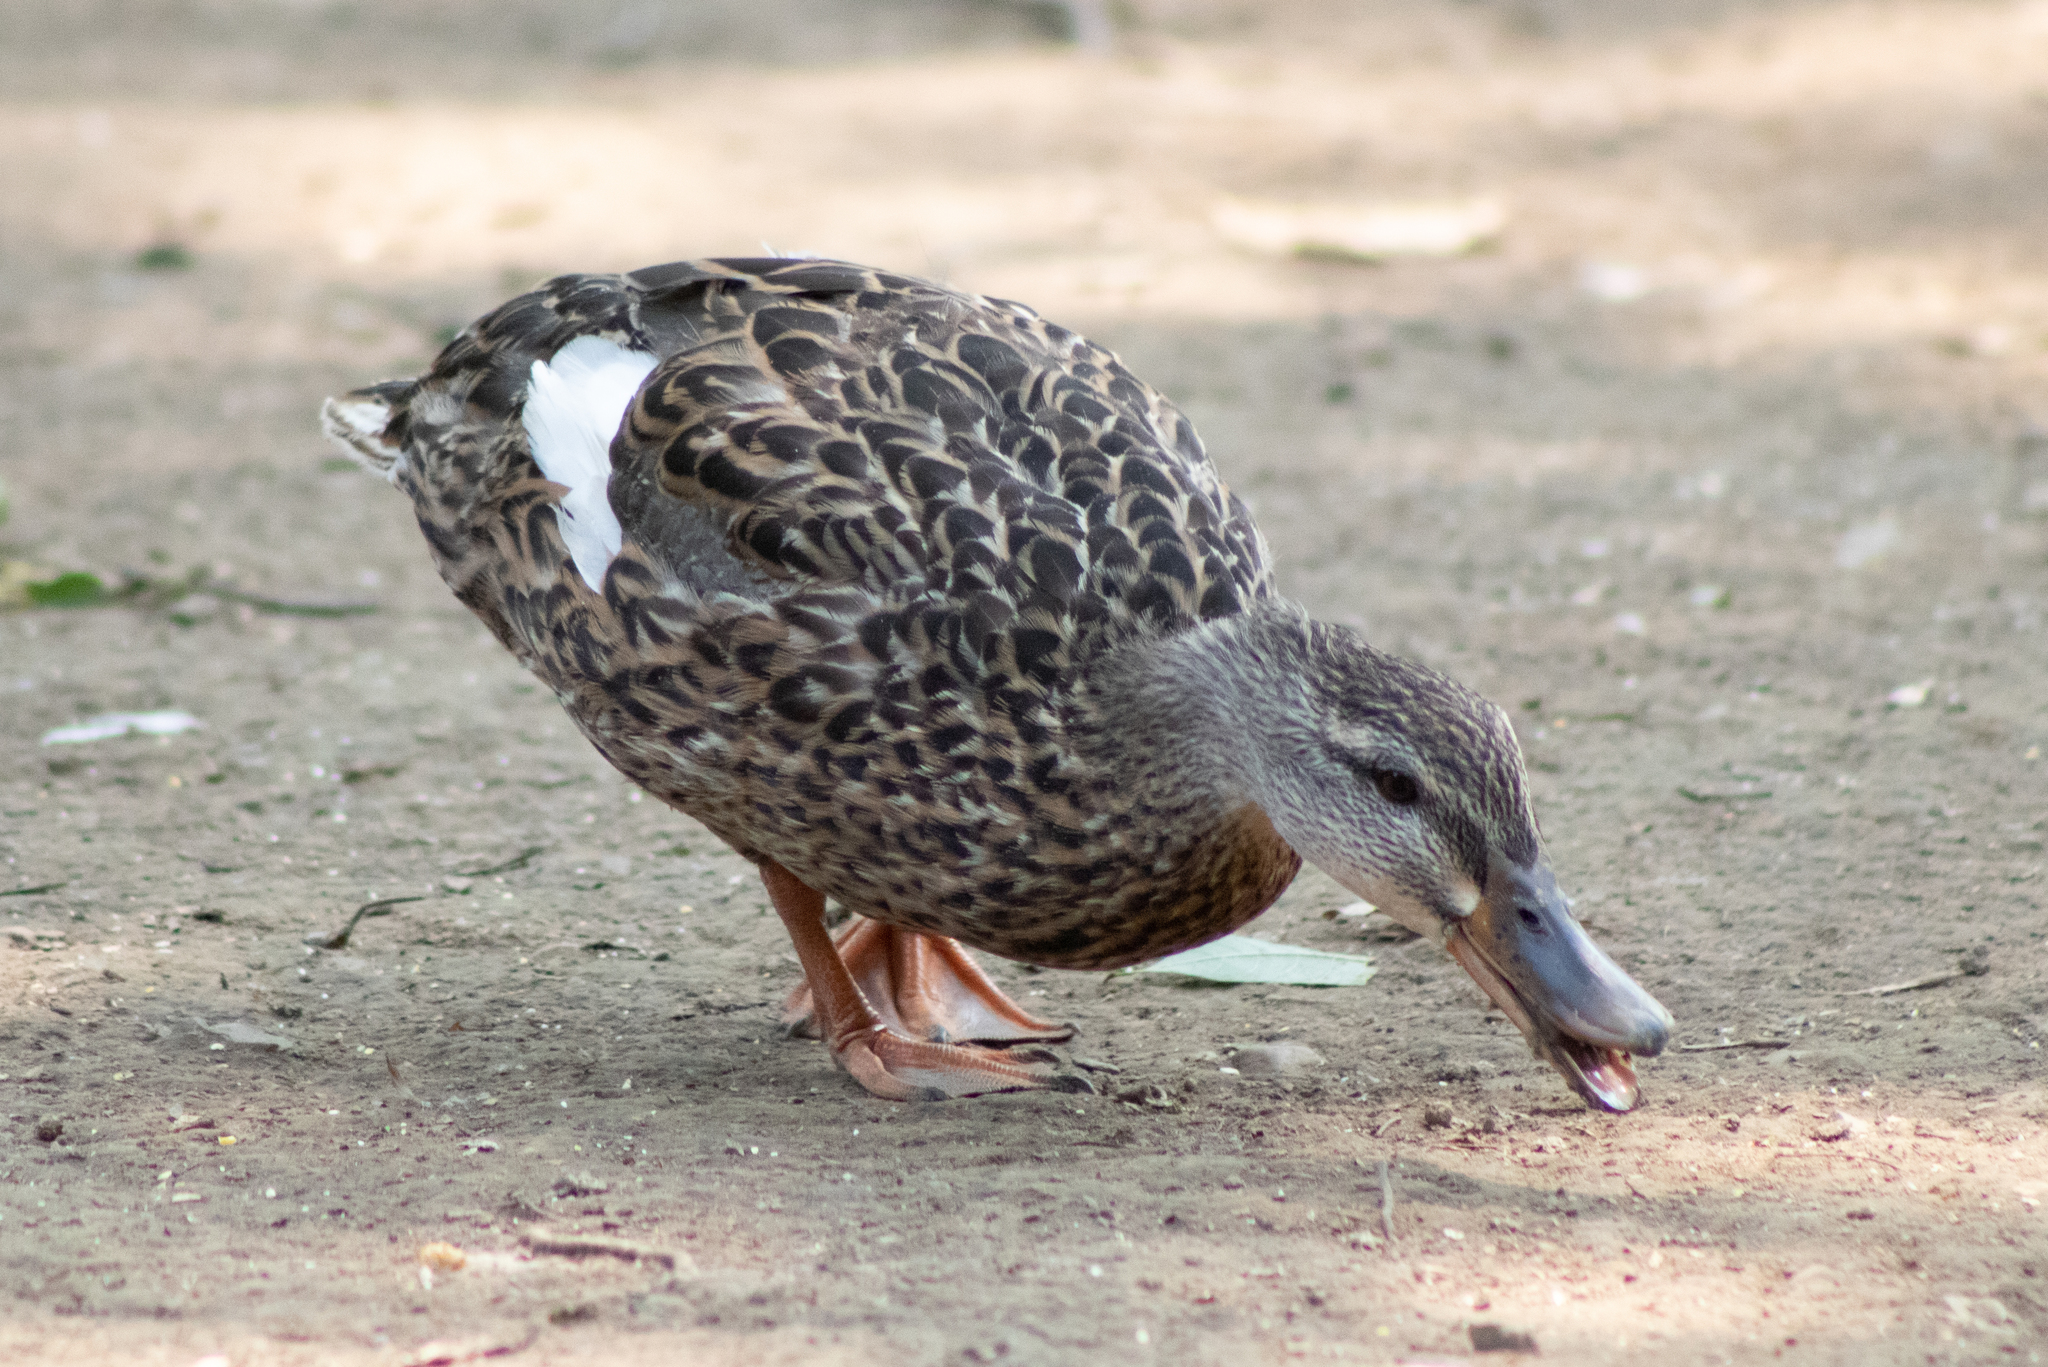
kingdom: Animalia
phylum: Chordata
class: Aves
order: Anseriformes
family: Anatidae
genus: Anas
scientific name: Anas platyrhynchos
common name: Mallard
